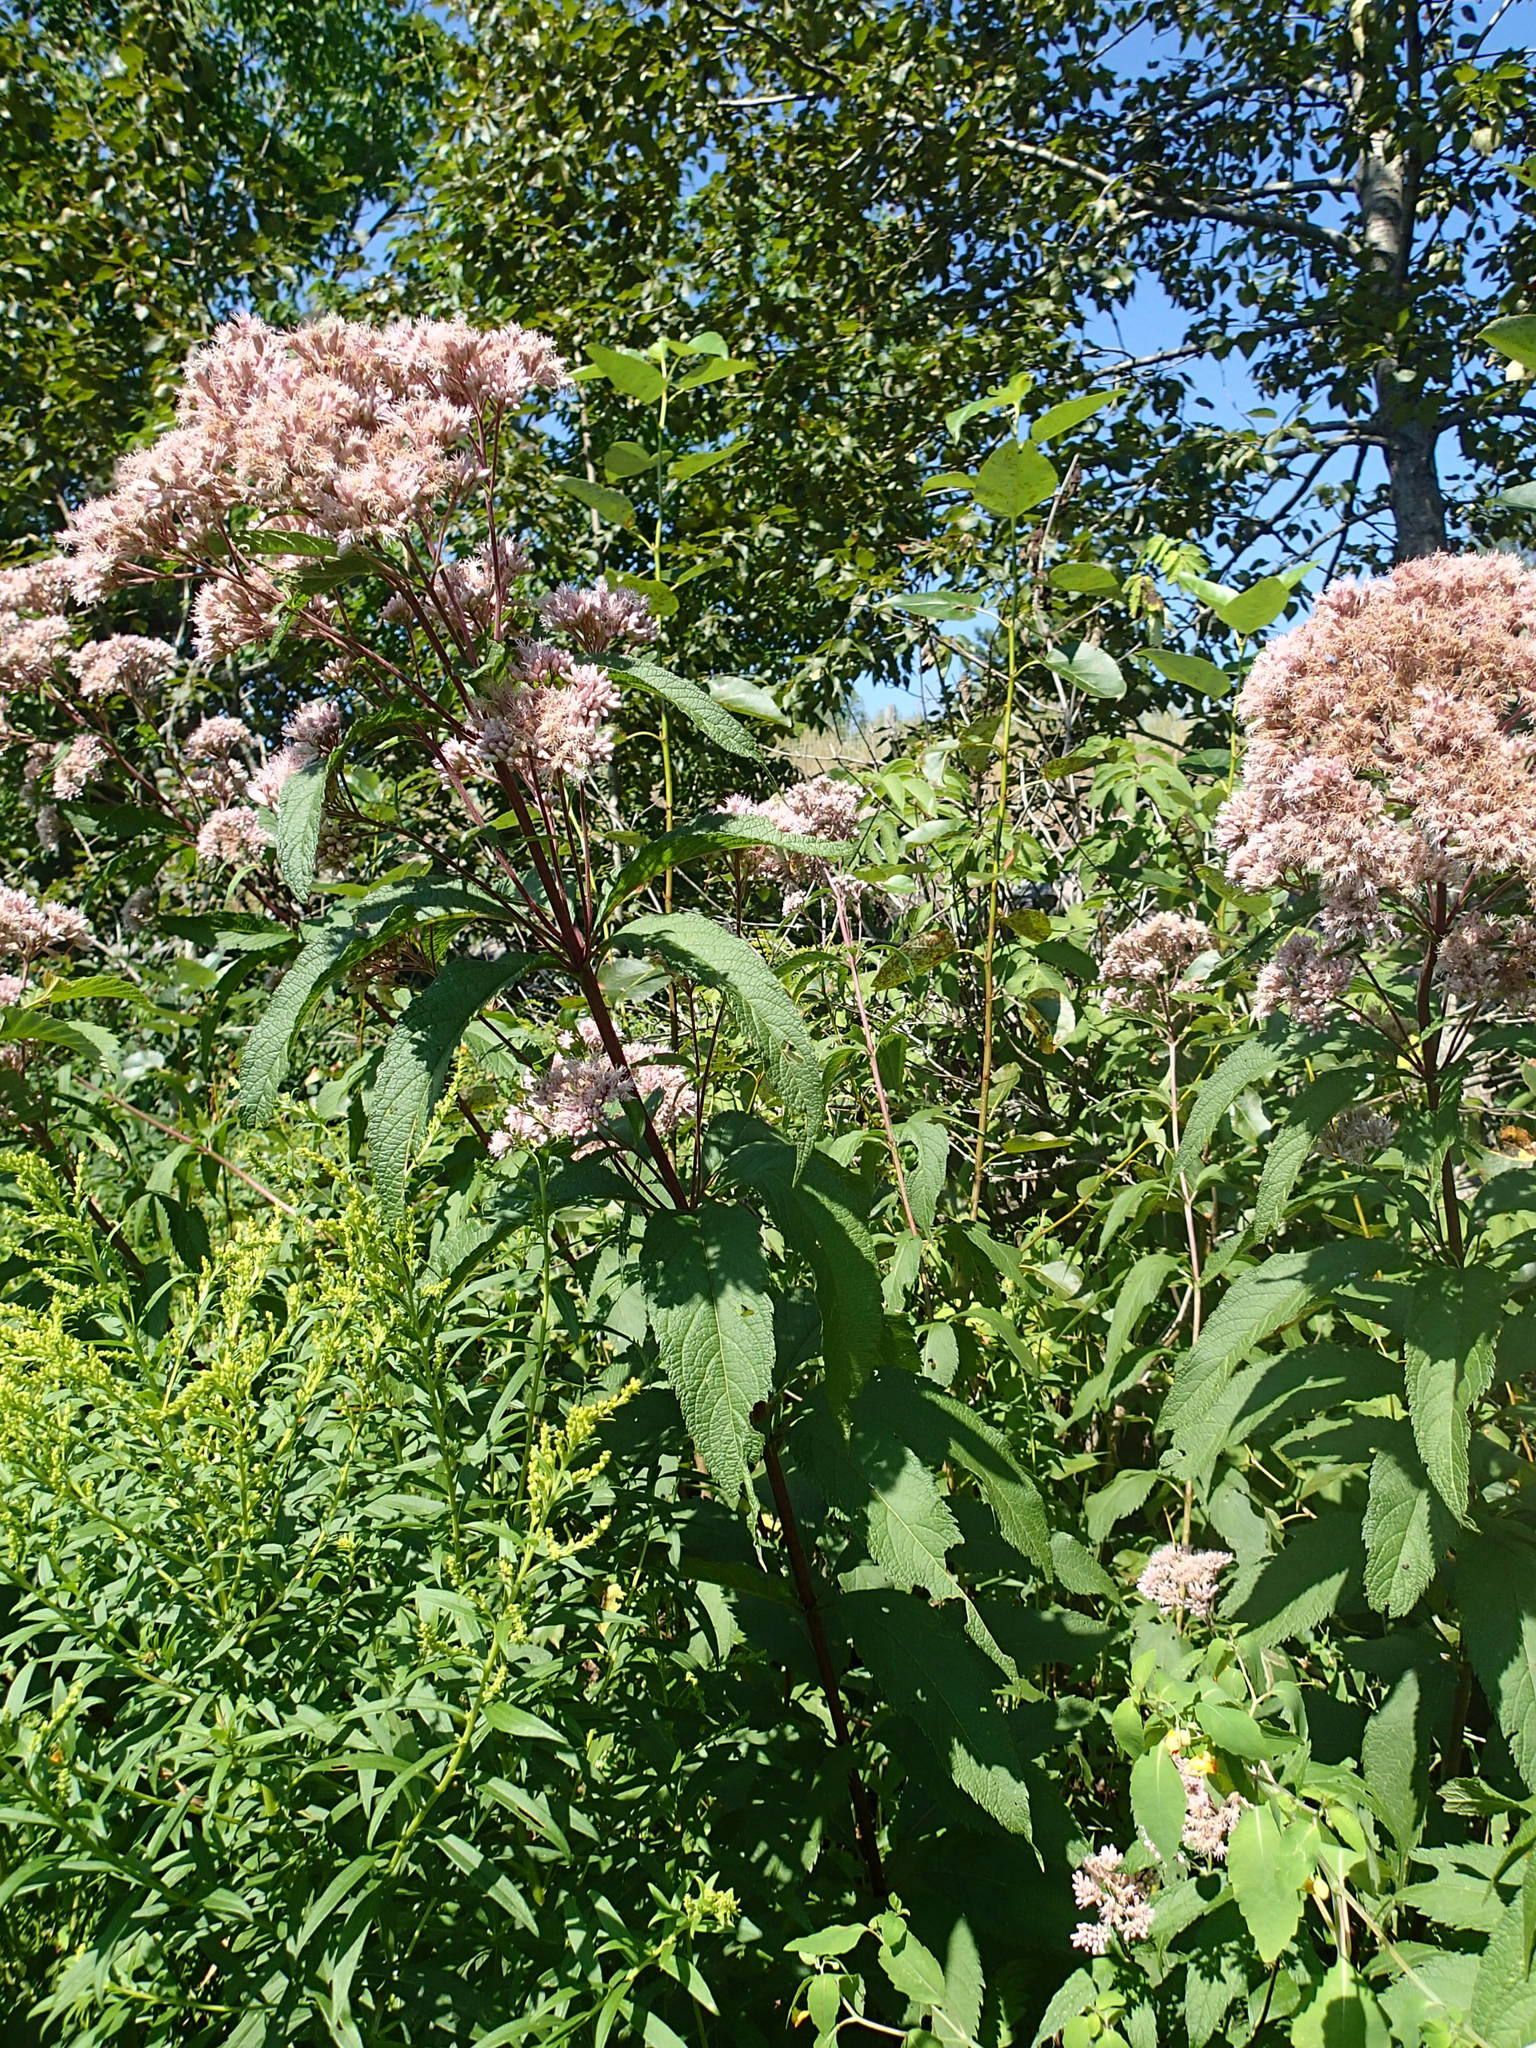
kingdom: Plantae
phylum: Tracheophyta
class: Magnoliopsida
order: Asterales
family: Asteraceae
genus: Eutrochium
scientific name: Eutrochium maculatum
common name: Spotted joe pye weed
